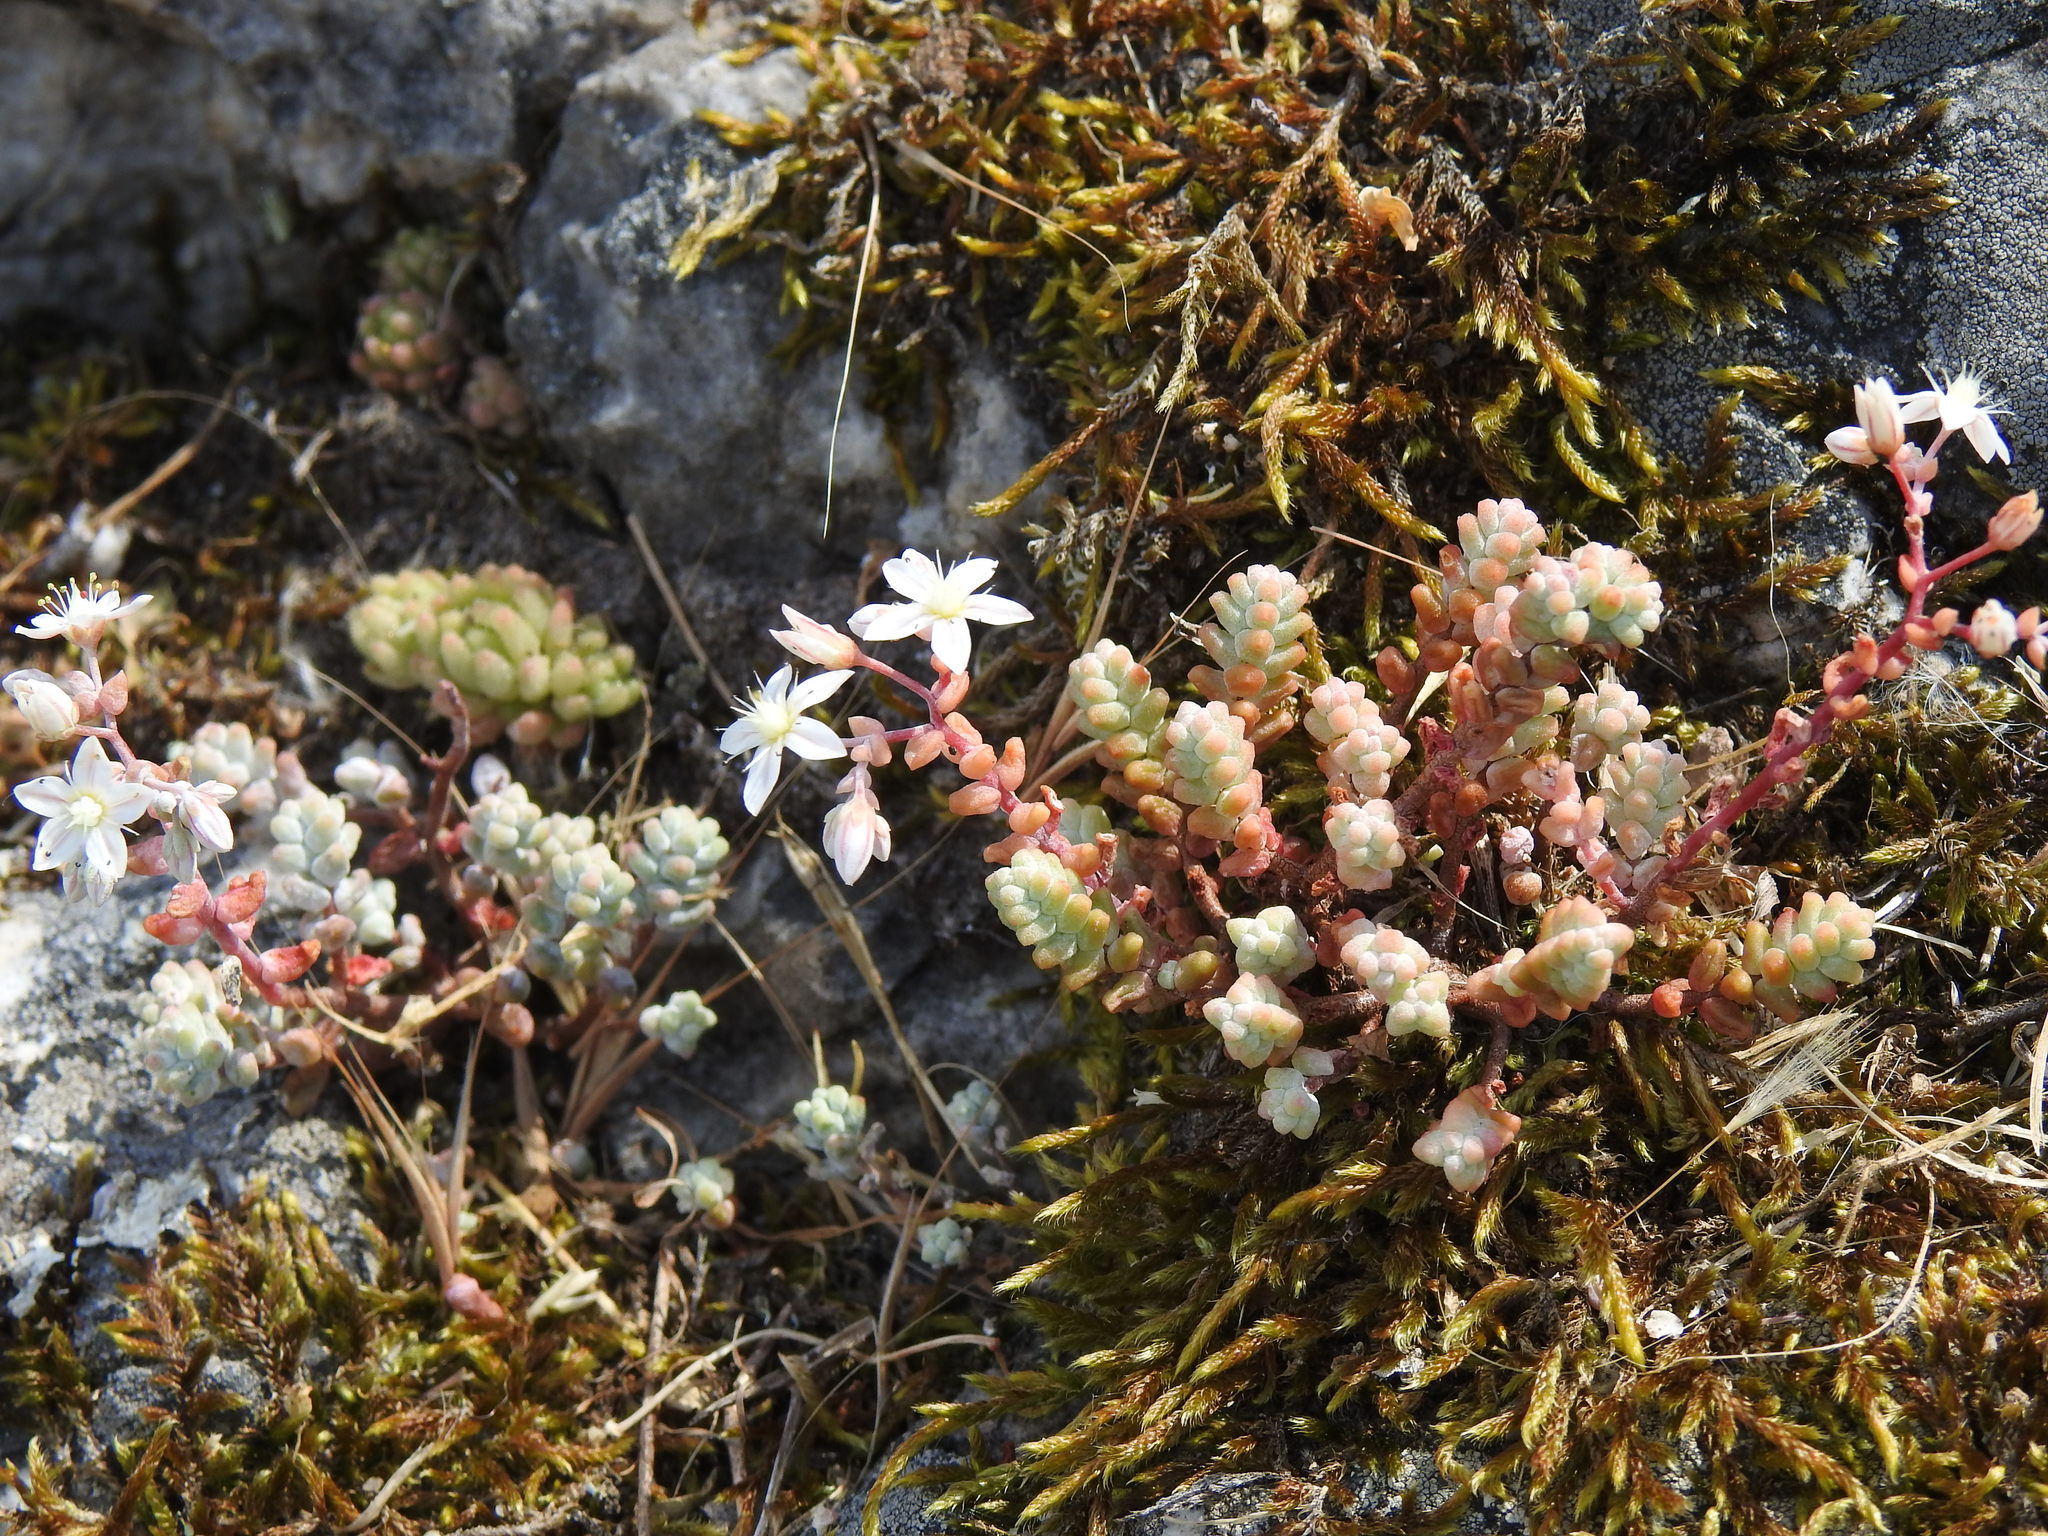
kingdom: Plantae
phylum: Tracheophyta
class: Magnoliopsida
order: Saxifragales
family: Crassulaceae
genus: Sedum
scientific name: Sedum brevifolium
